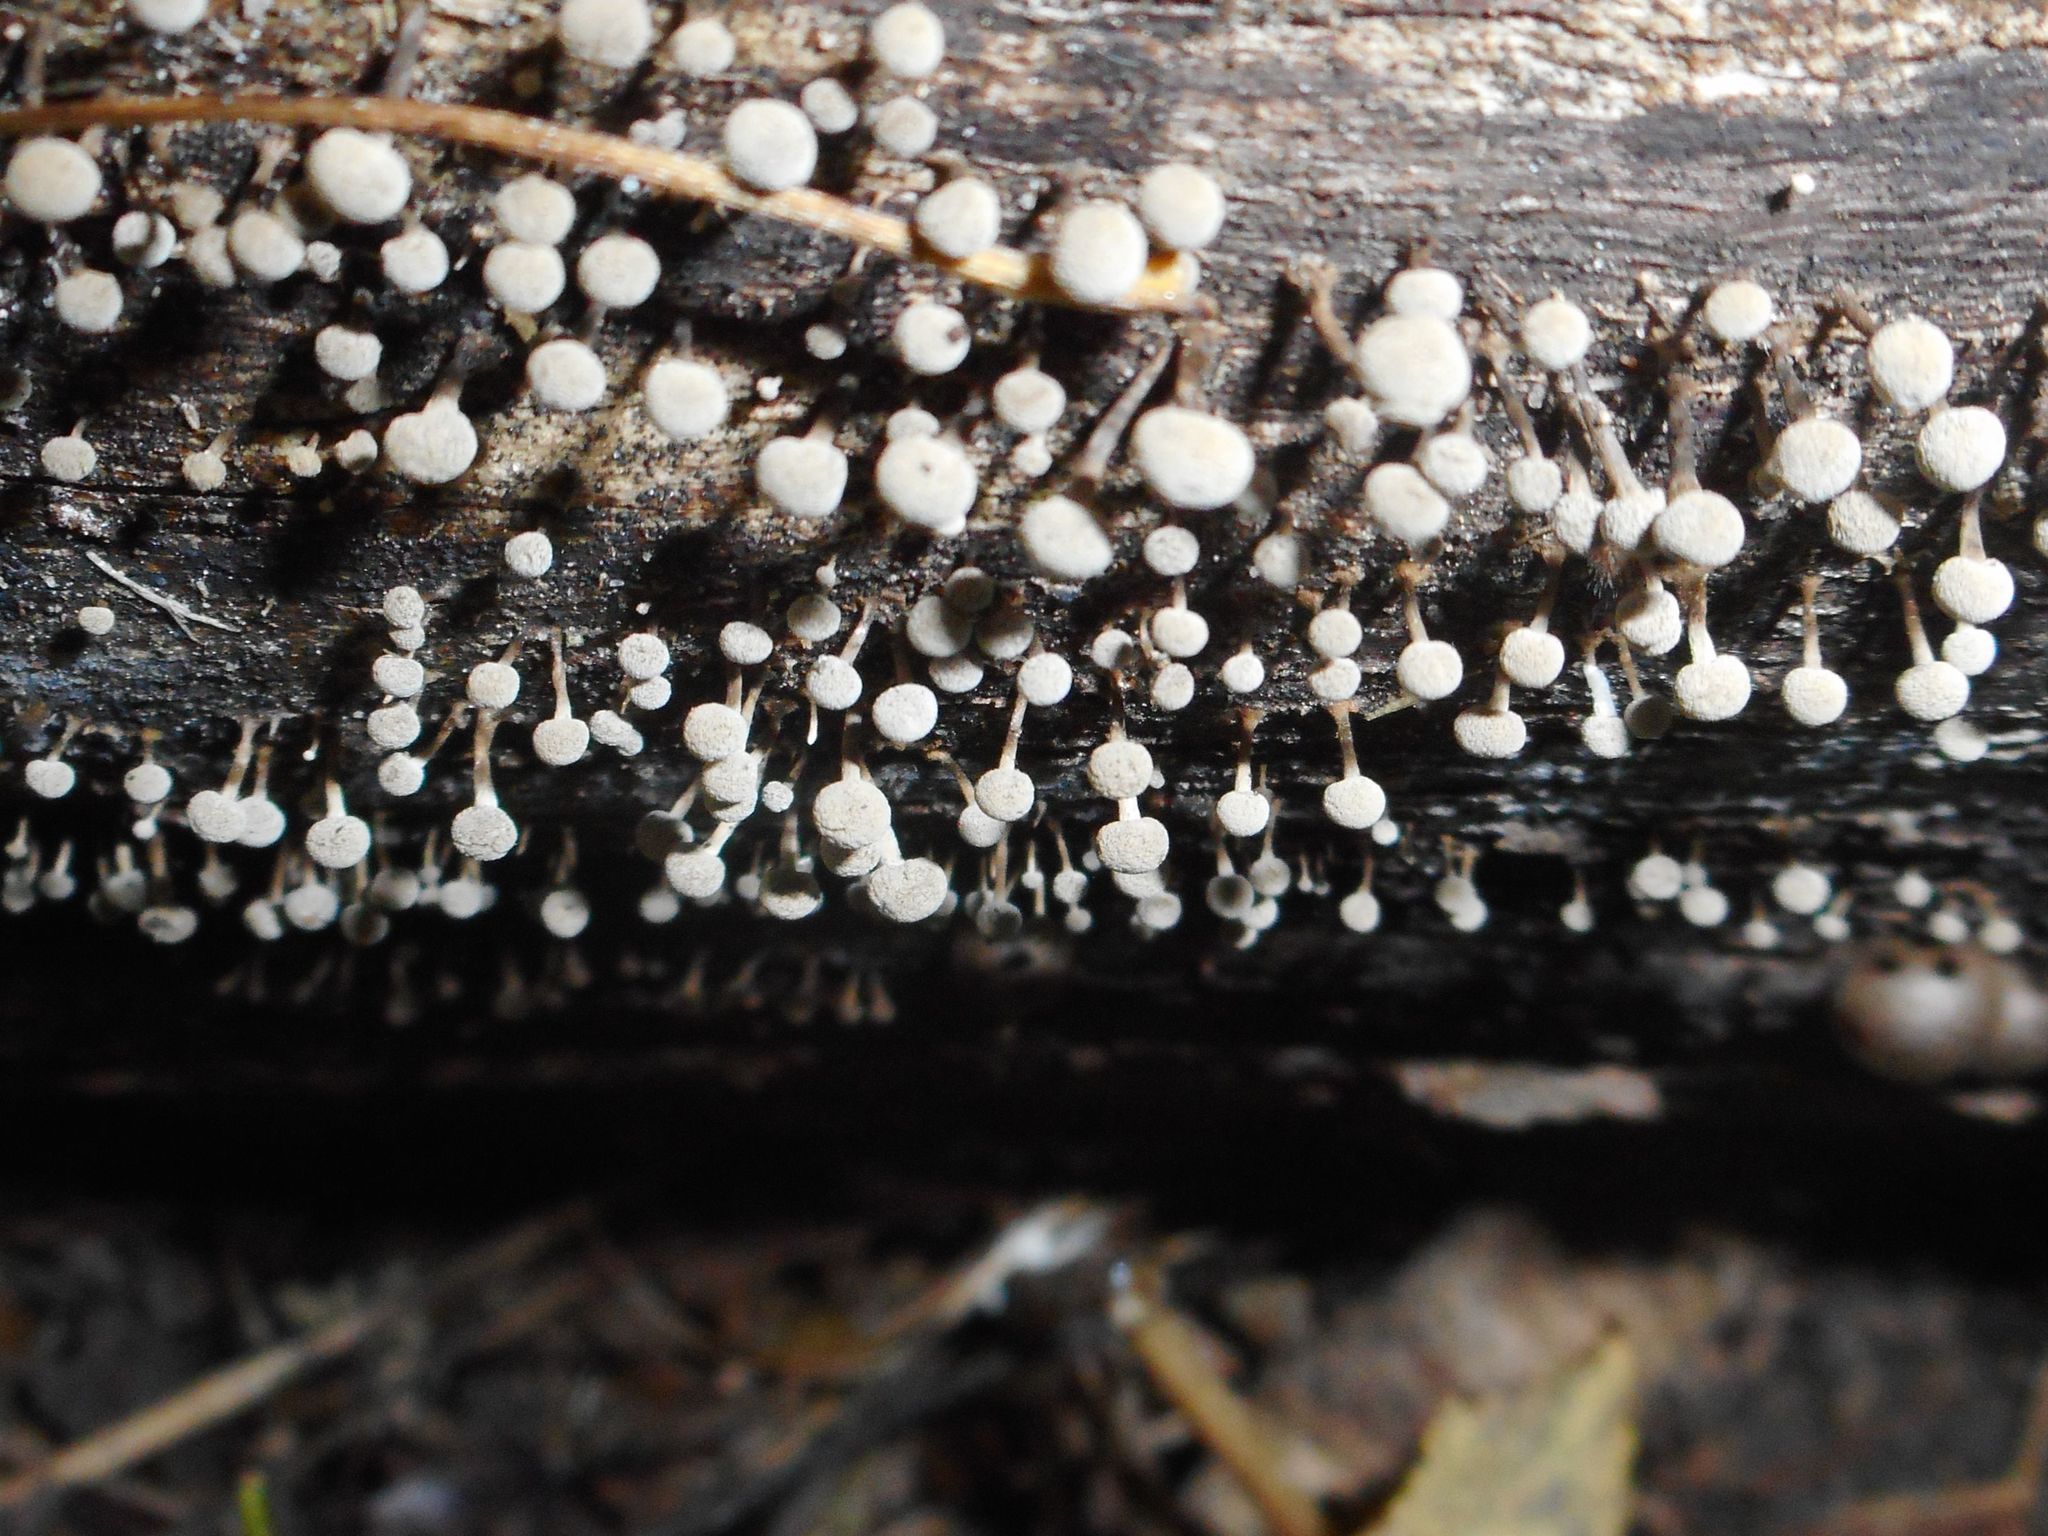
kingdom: Fungi
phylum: Basidiomycota
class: Atractiellomycetes
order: Atractiellales
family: Phleogenaceae
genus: Phleogena
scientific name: Phleogena faginea
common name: Fenugreek stalkball
